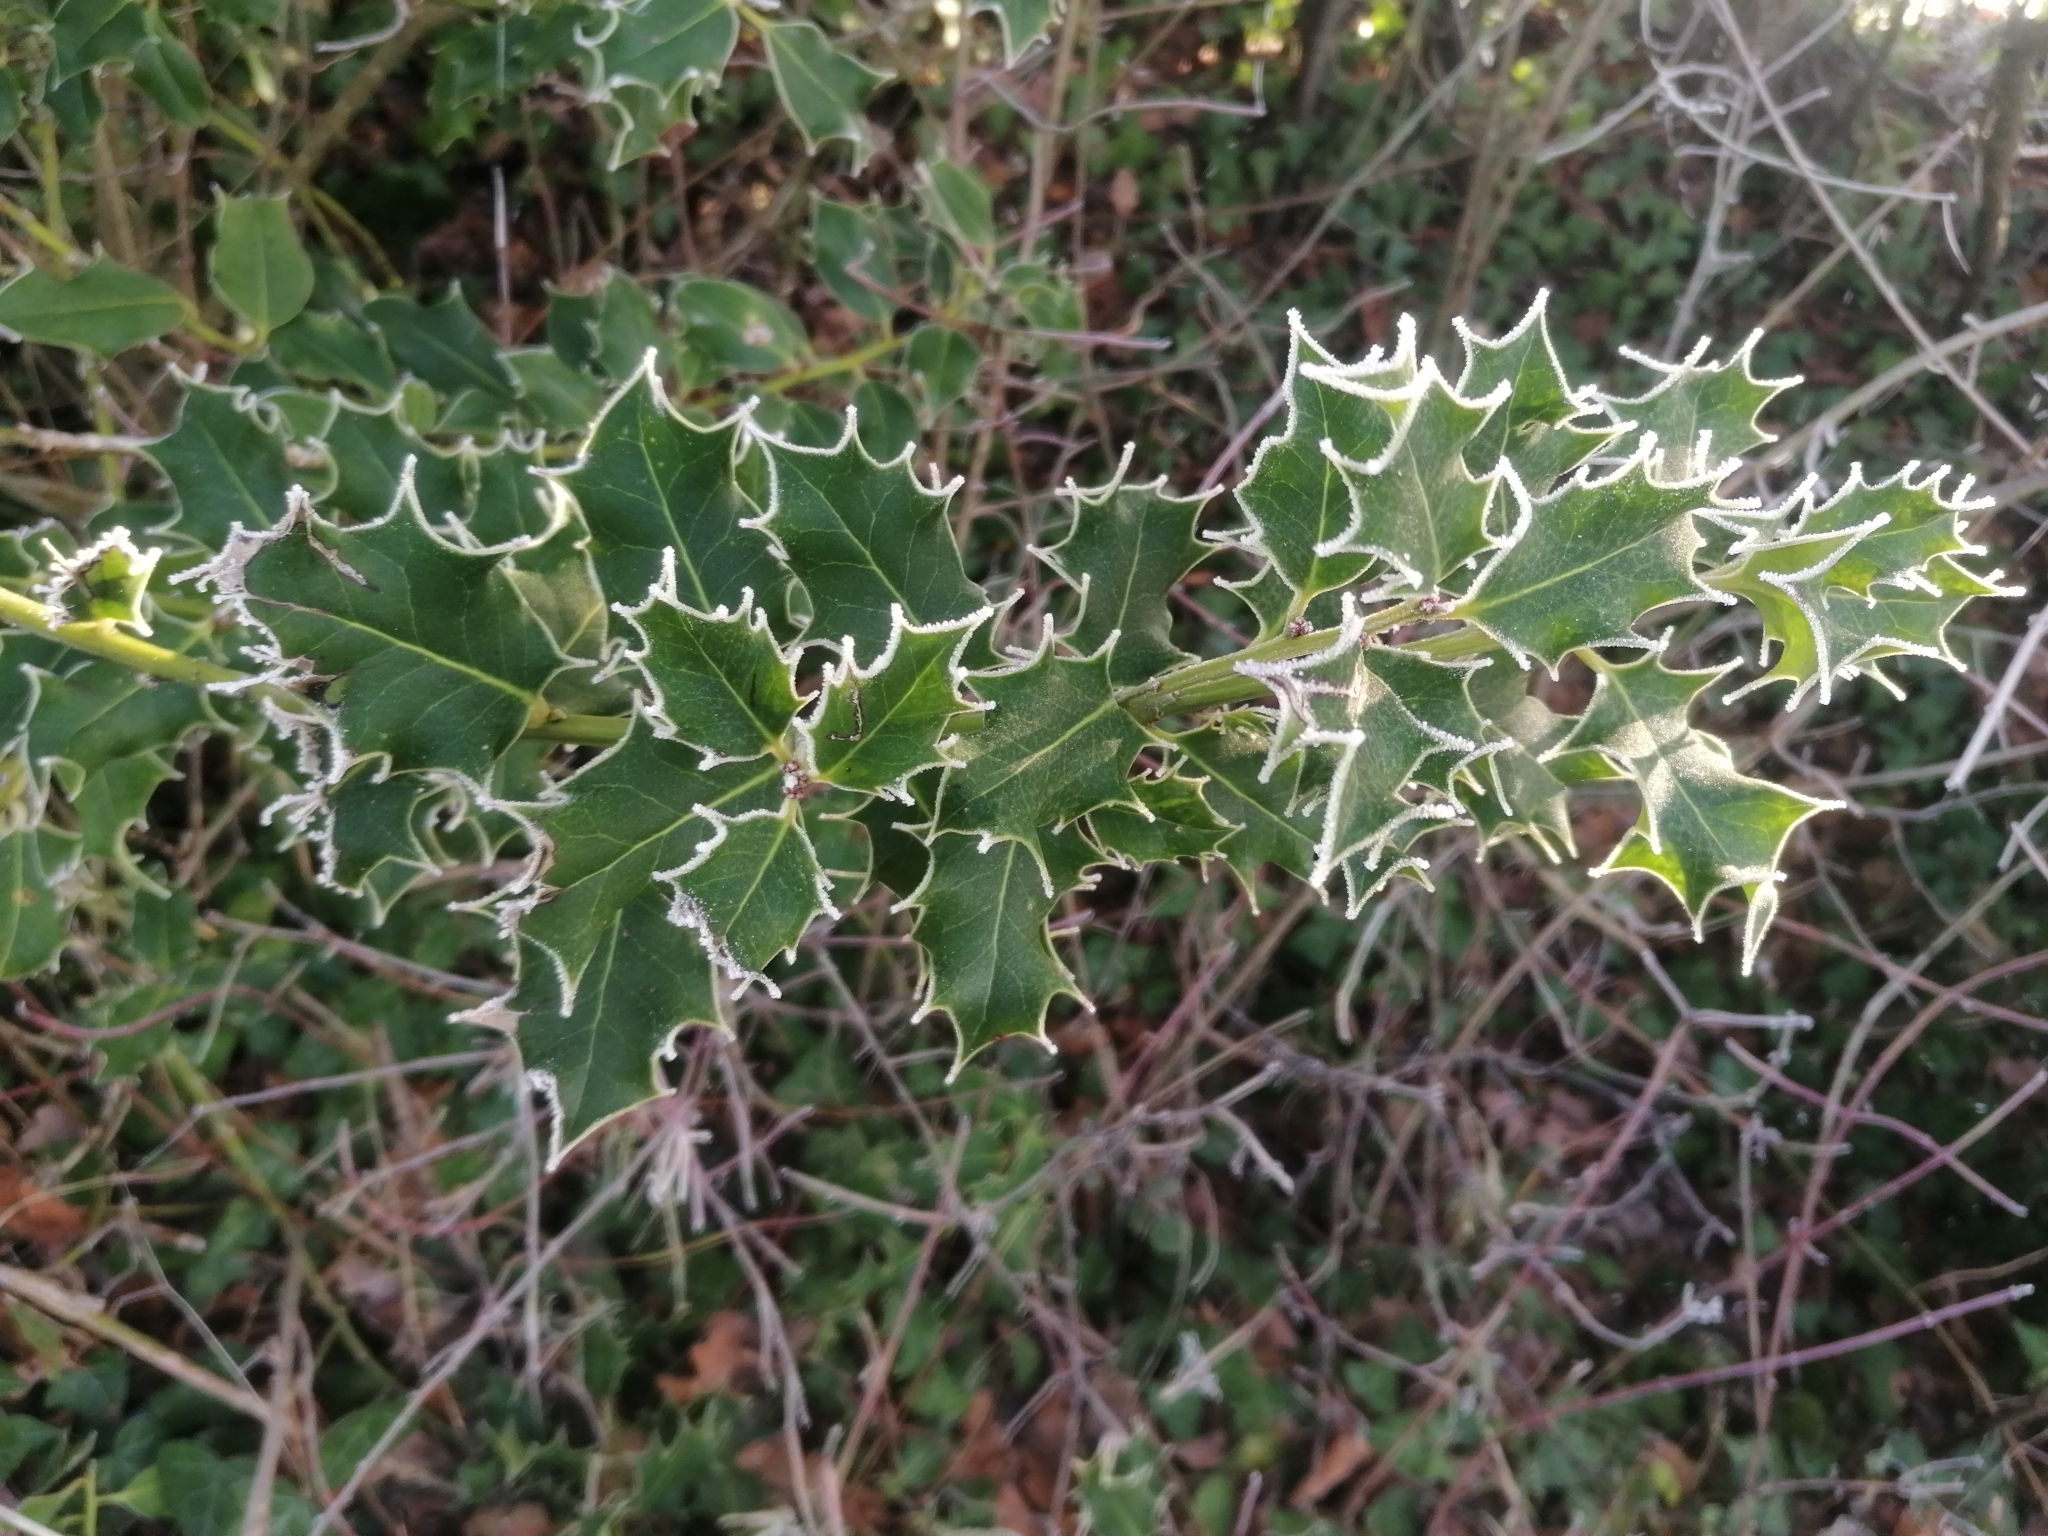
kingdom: Plantae
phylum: Tracheophyta
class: Magnoliopsida
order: Aquifoliales
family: Aquifoliaceae
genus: Ilex
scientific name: Ilex aquifolium
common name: English holly
